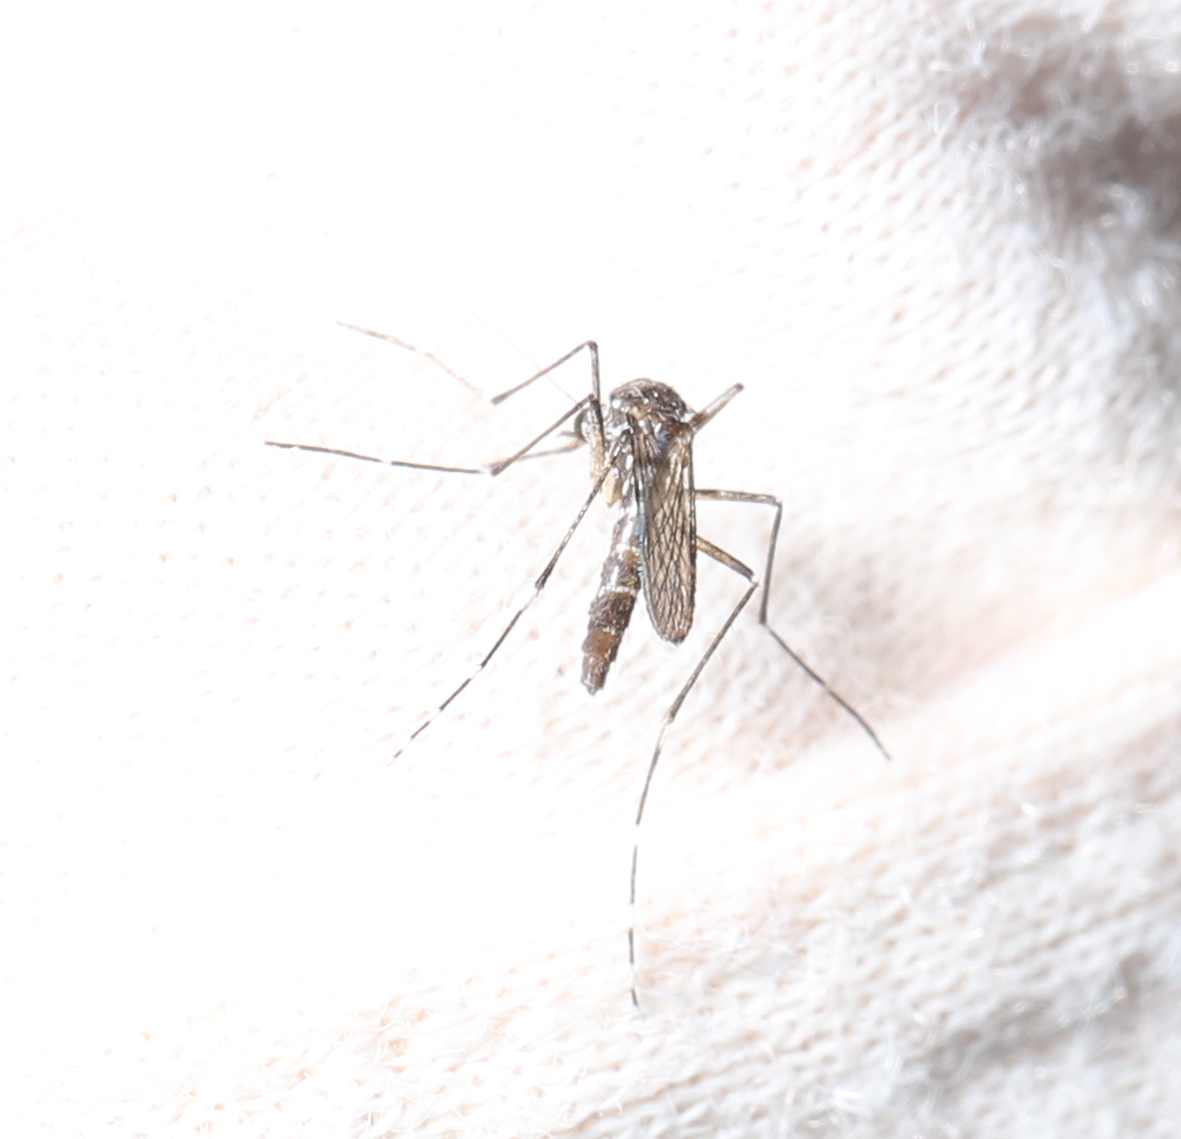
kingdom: Animalia
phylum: Arthropoda
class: Insecta
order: Diptera
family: Culicidae
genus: Aedes
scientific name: Aedes albopictus
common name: Tiger mosquito
